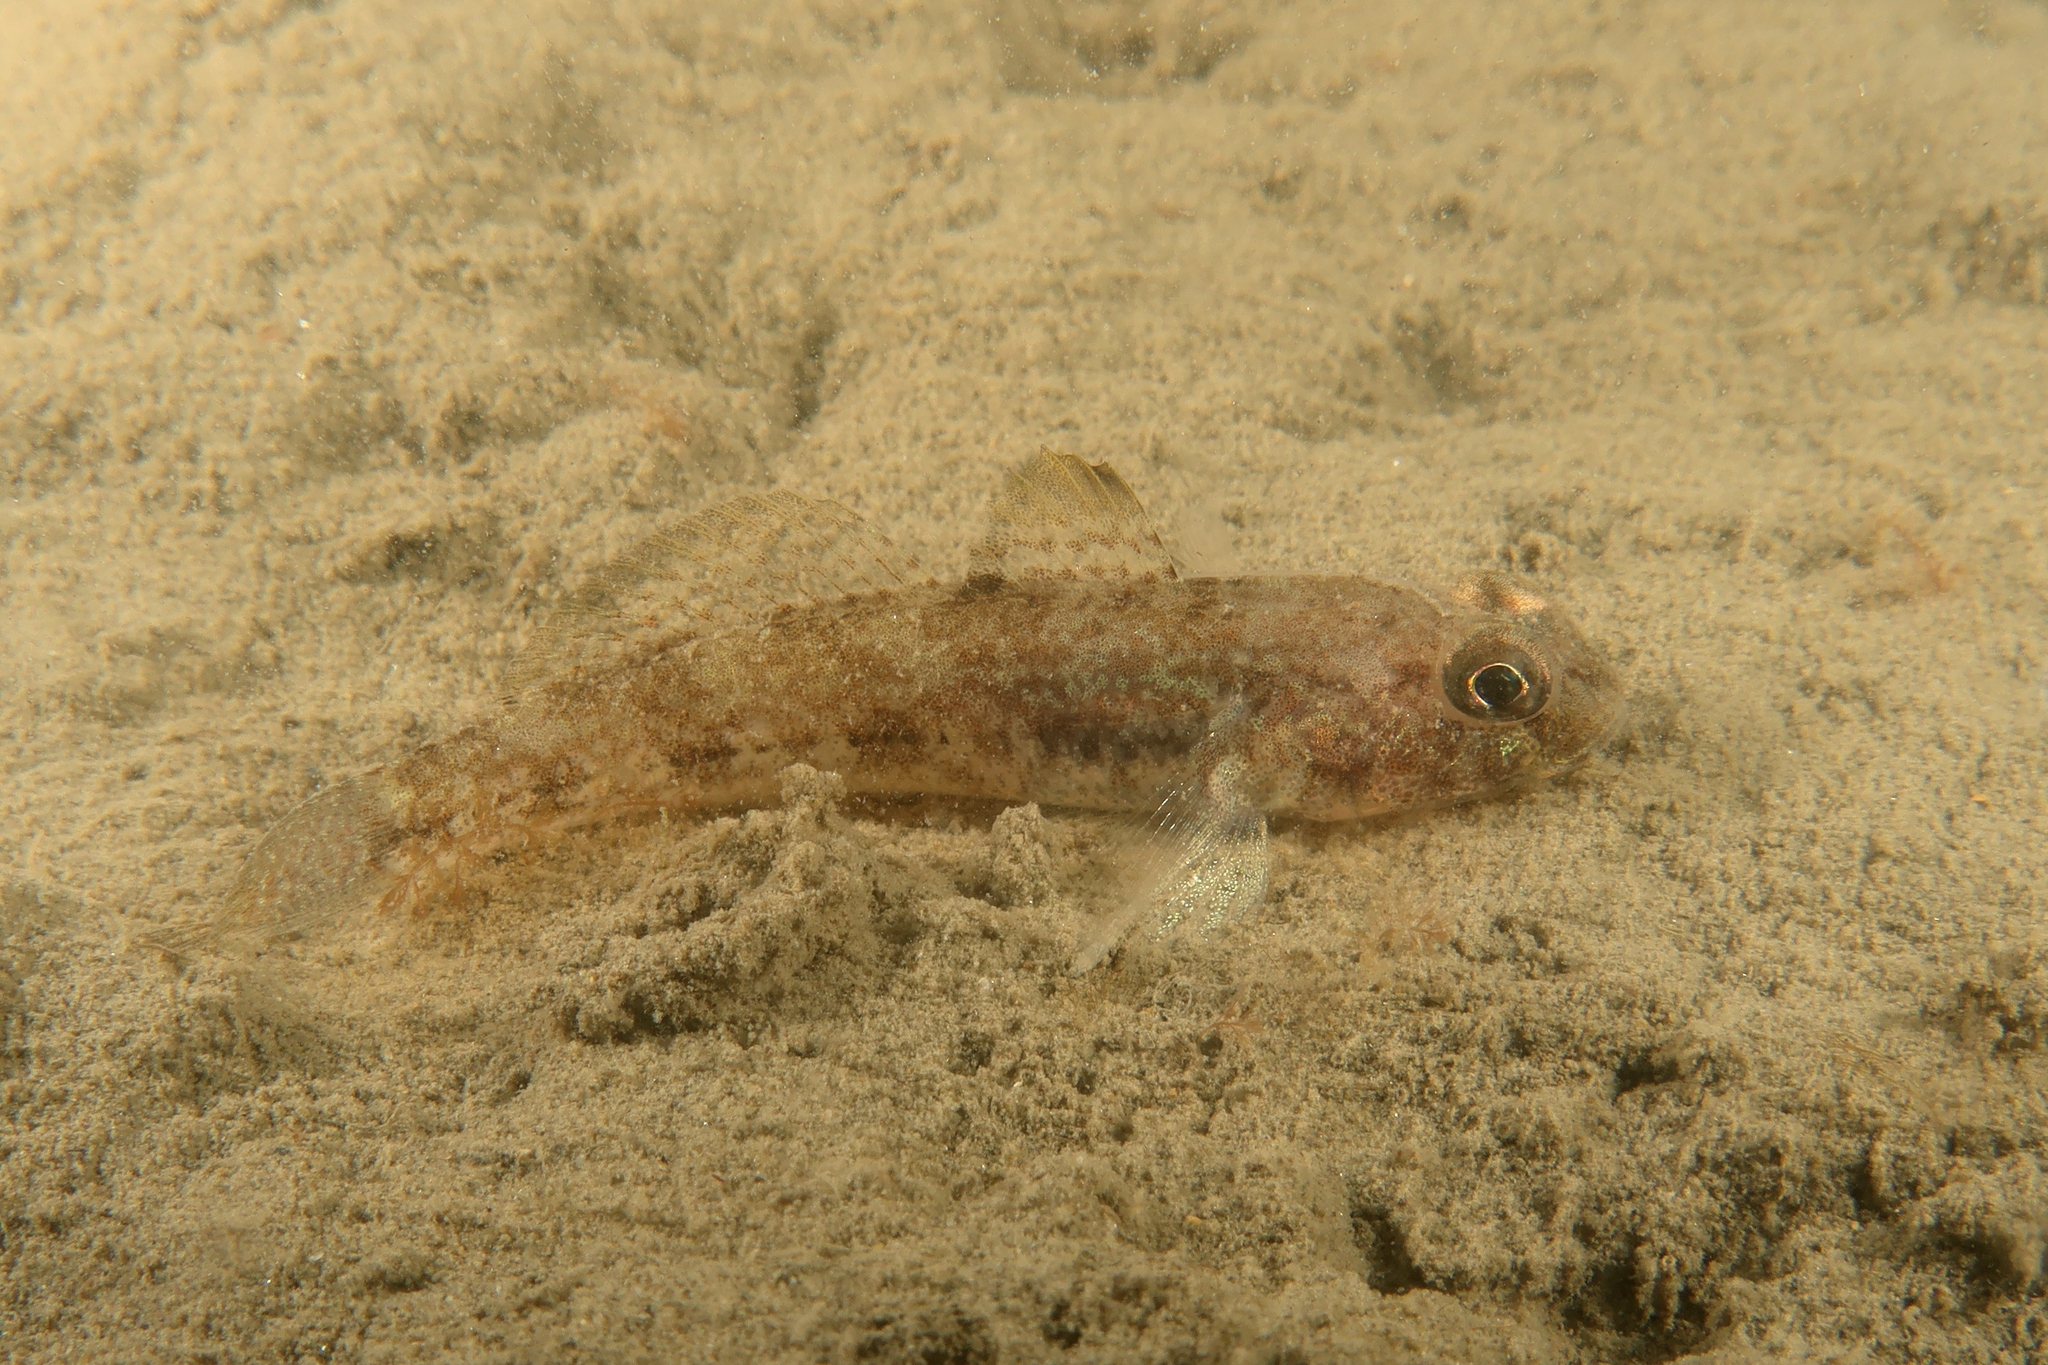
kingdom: Animalia
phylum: Chordata
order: Perciformes
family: Gobiidae
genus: Gobius
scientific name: Gobius niger
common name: Black goby
